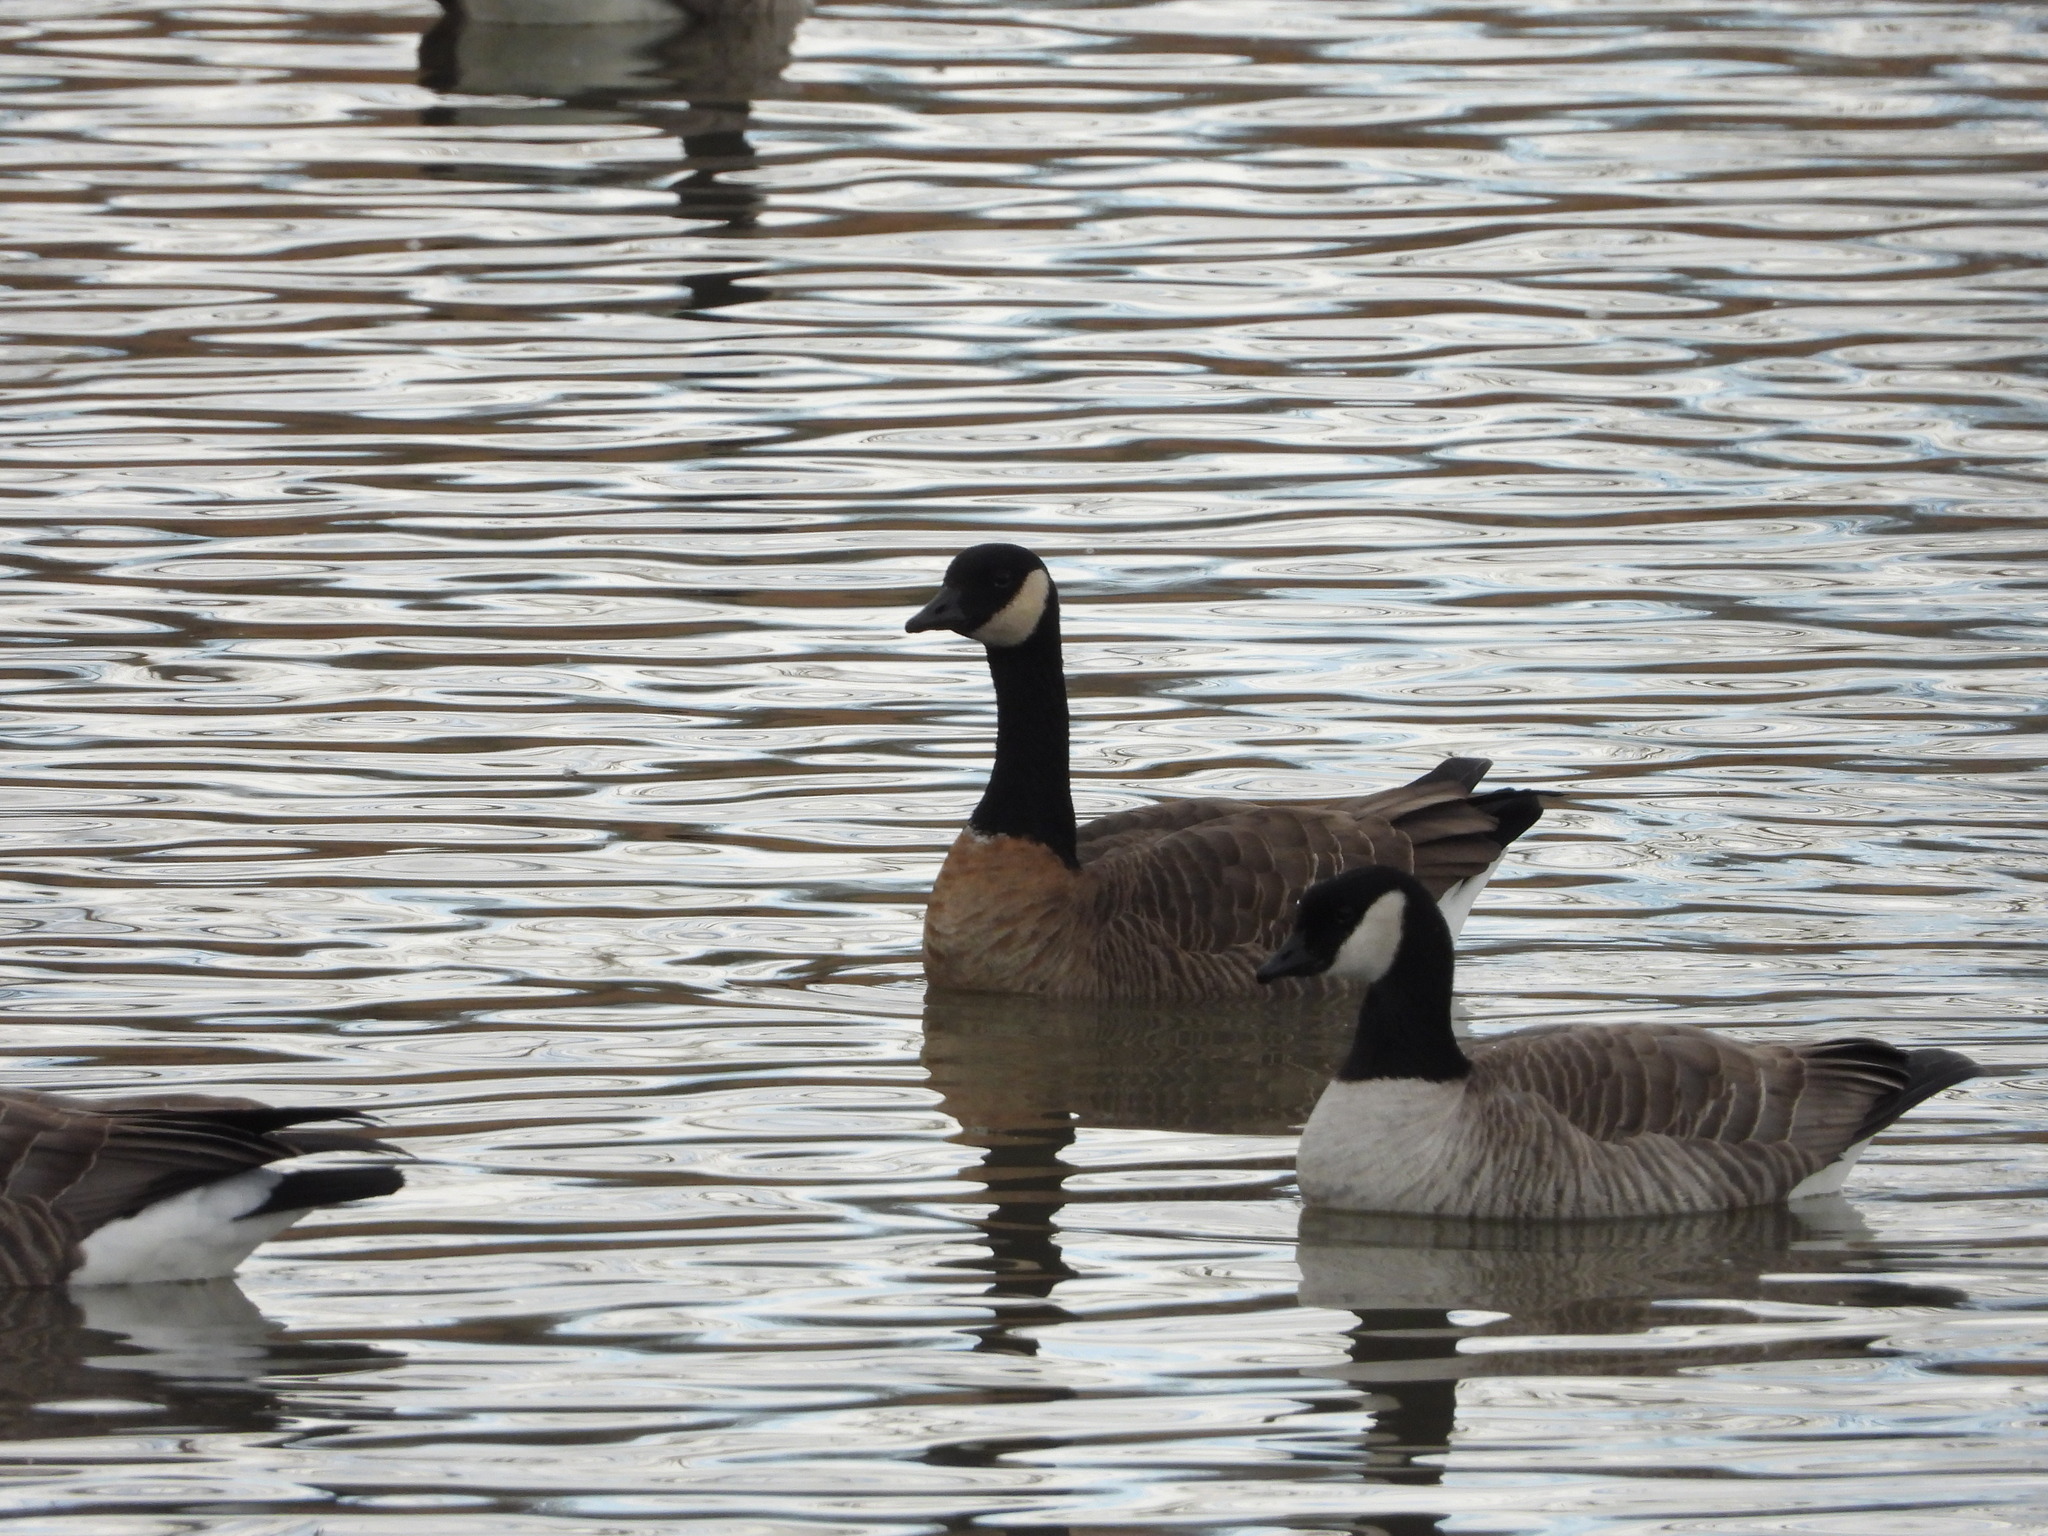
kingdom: Animalia
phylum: Chordata
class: Aves
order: Anseriformes
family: Anatidae
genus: Branta
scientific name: Branta hutchinsii
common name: Cackling goose
